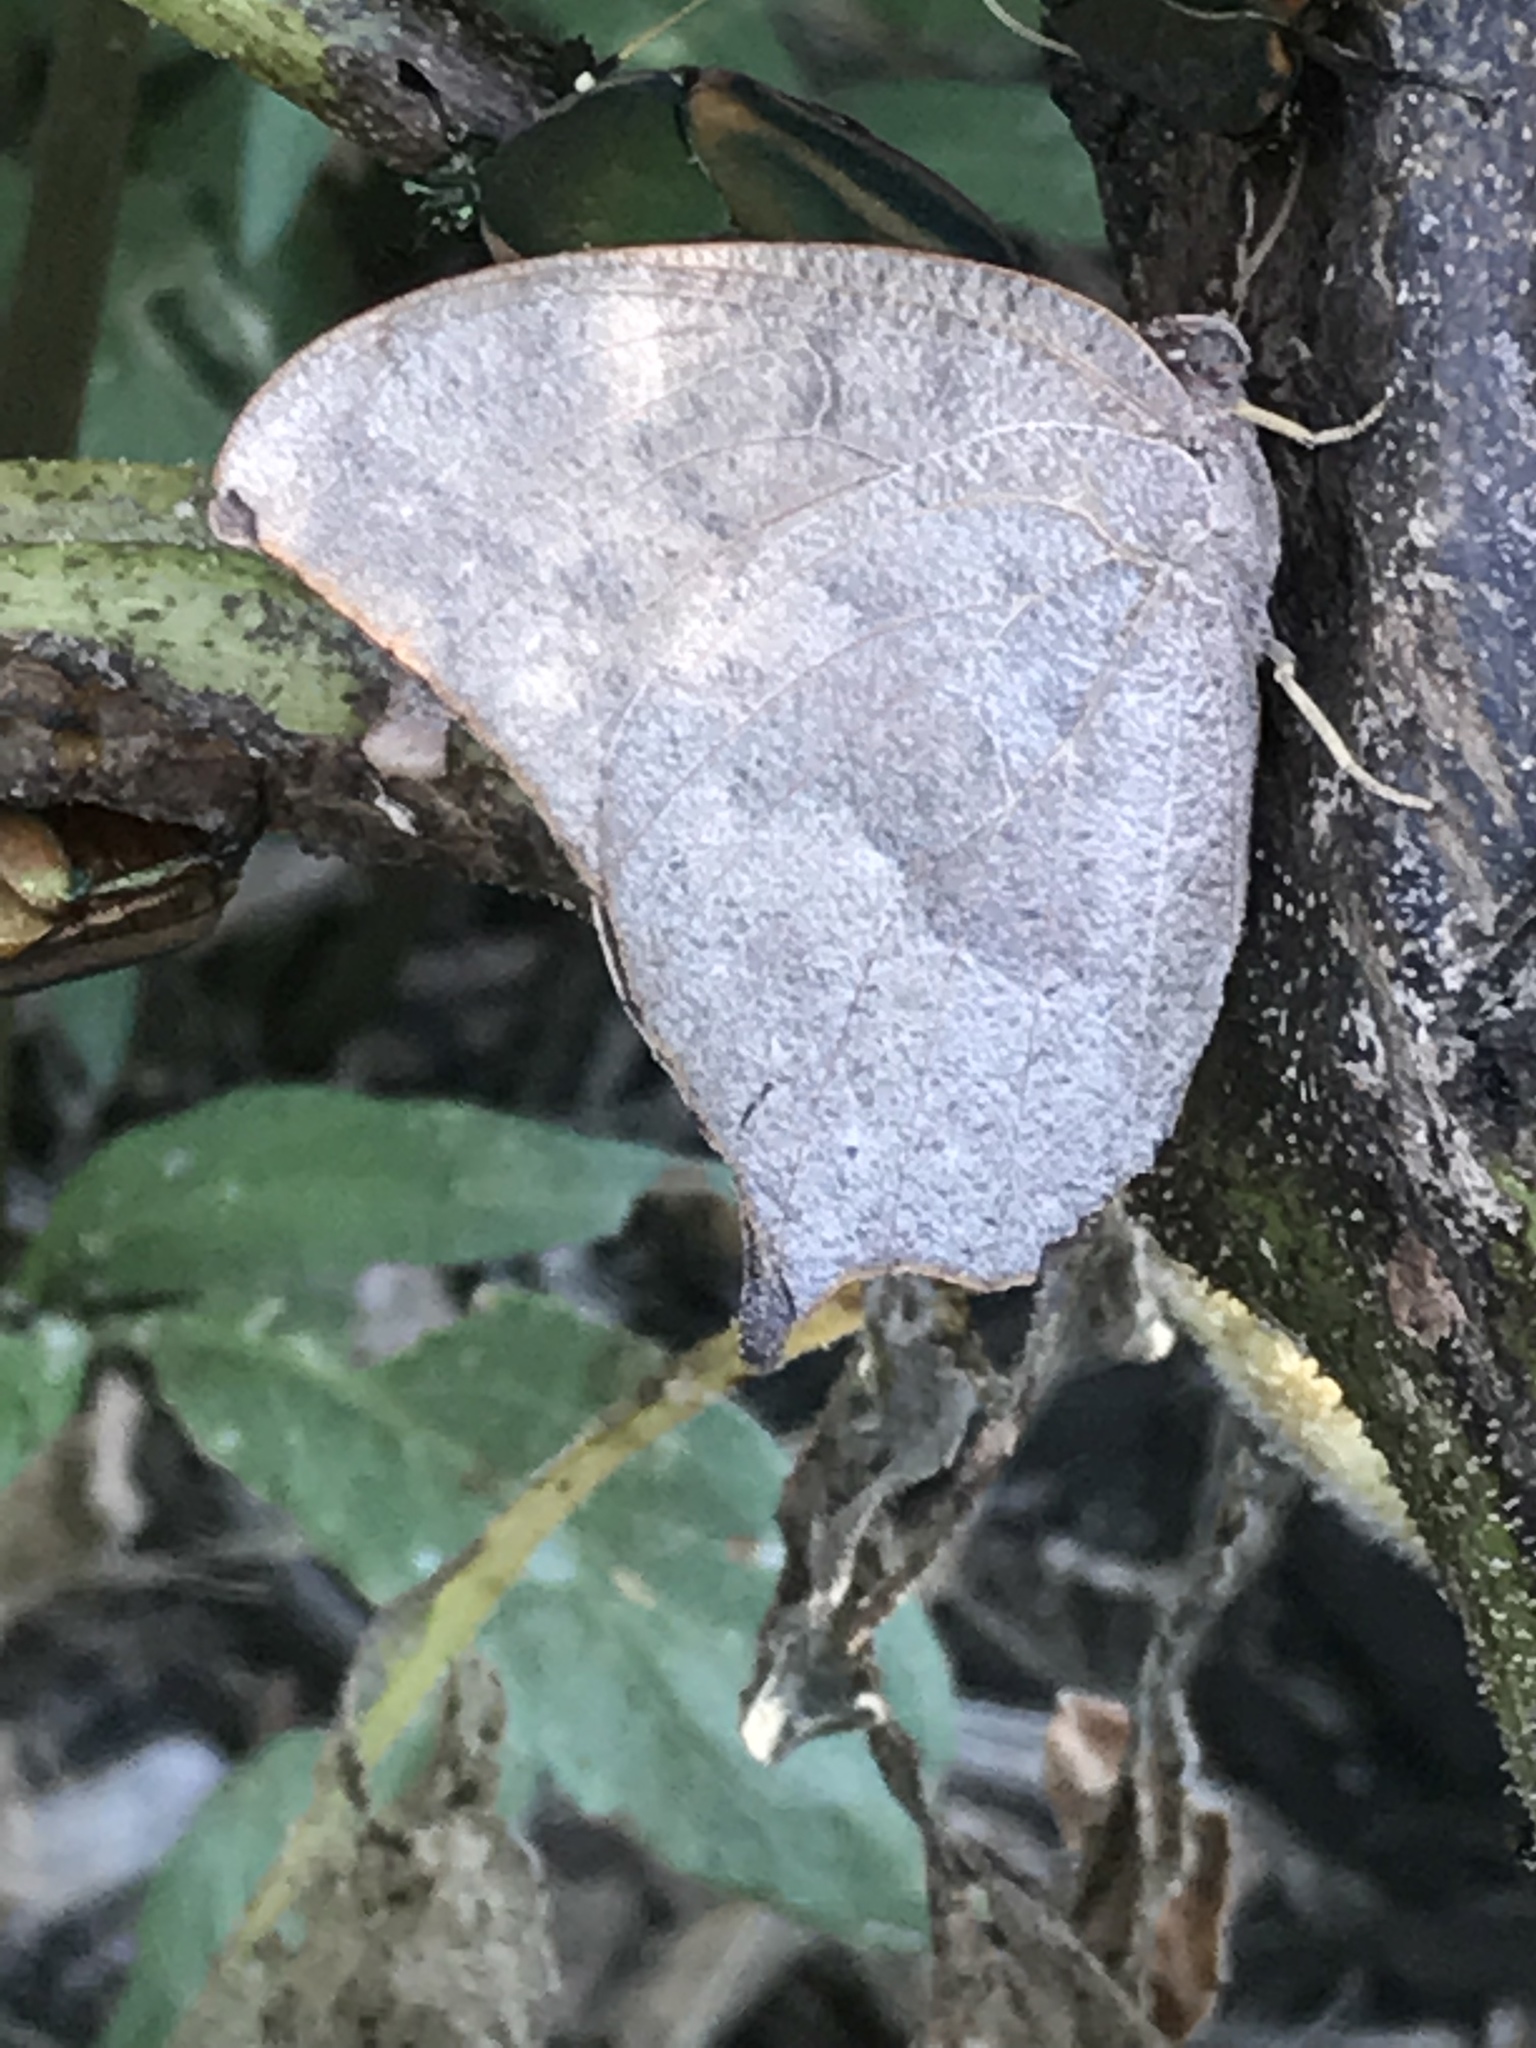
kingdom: Animalia
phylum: Arthropoda
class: Insecta
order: Lepidoptera
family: Nymphalidae
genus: Anaea
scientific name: Anaea andria
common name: Goatweed leafwing
